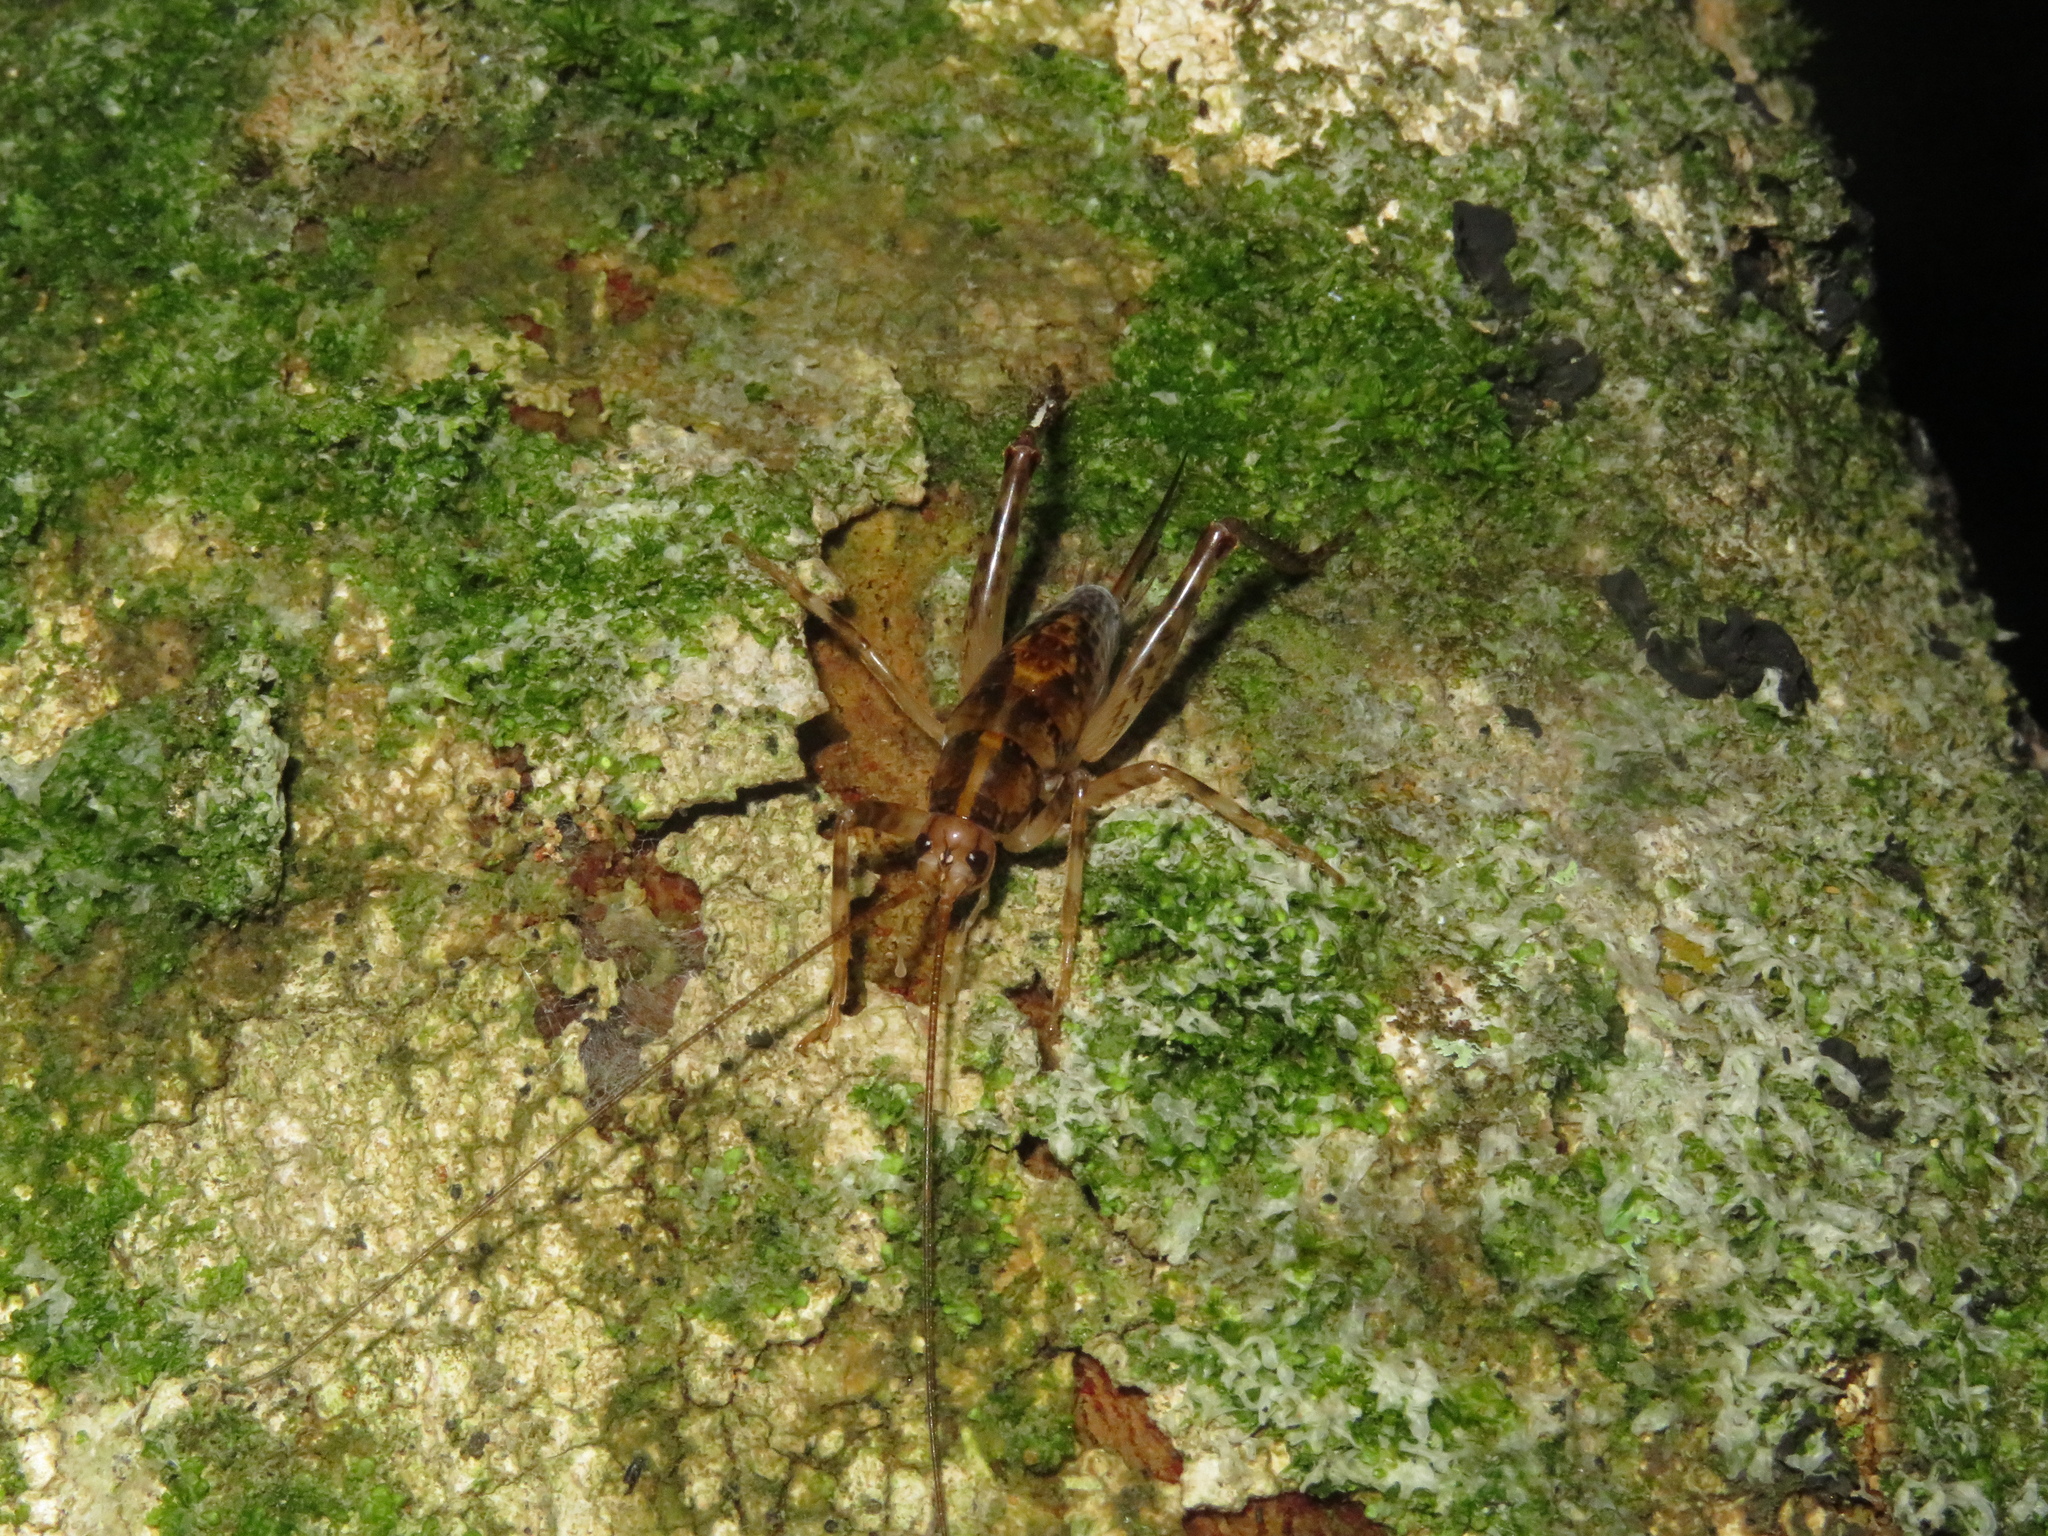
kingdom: Animalia
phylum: Arthropoda
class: Insecta
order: Orthoptera
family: Rhaphidophoridae
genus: Talitropsis
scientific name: Talitropsis sedilloti
